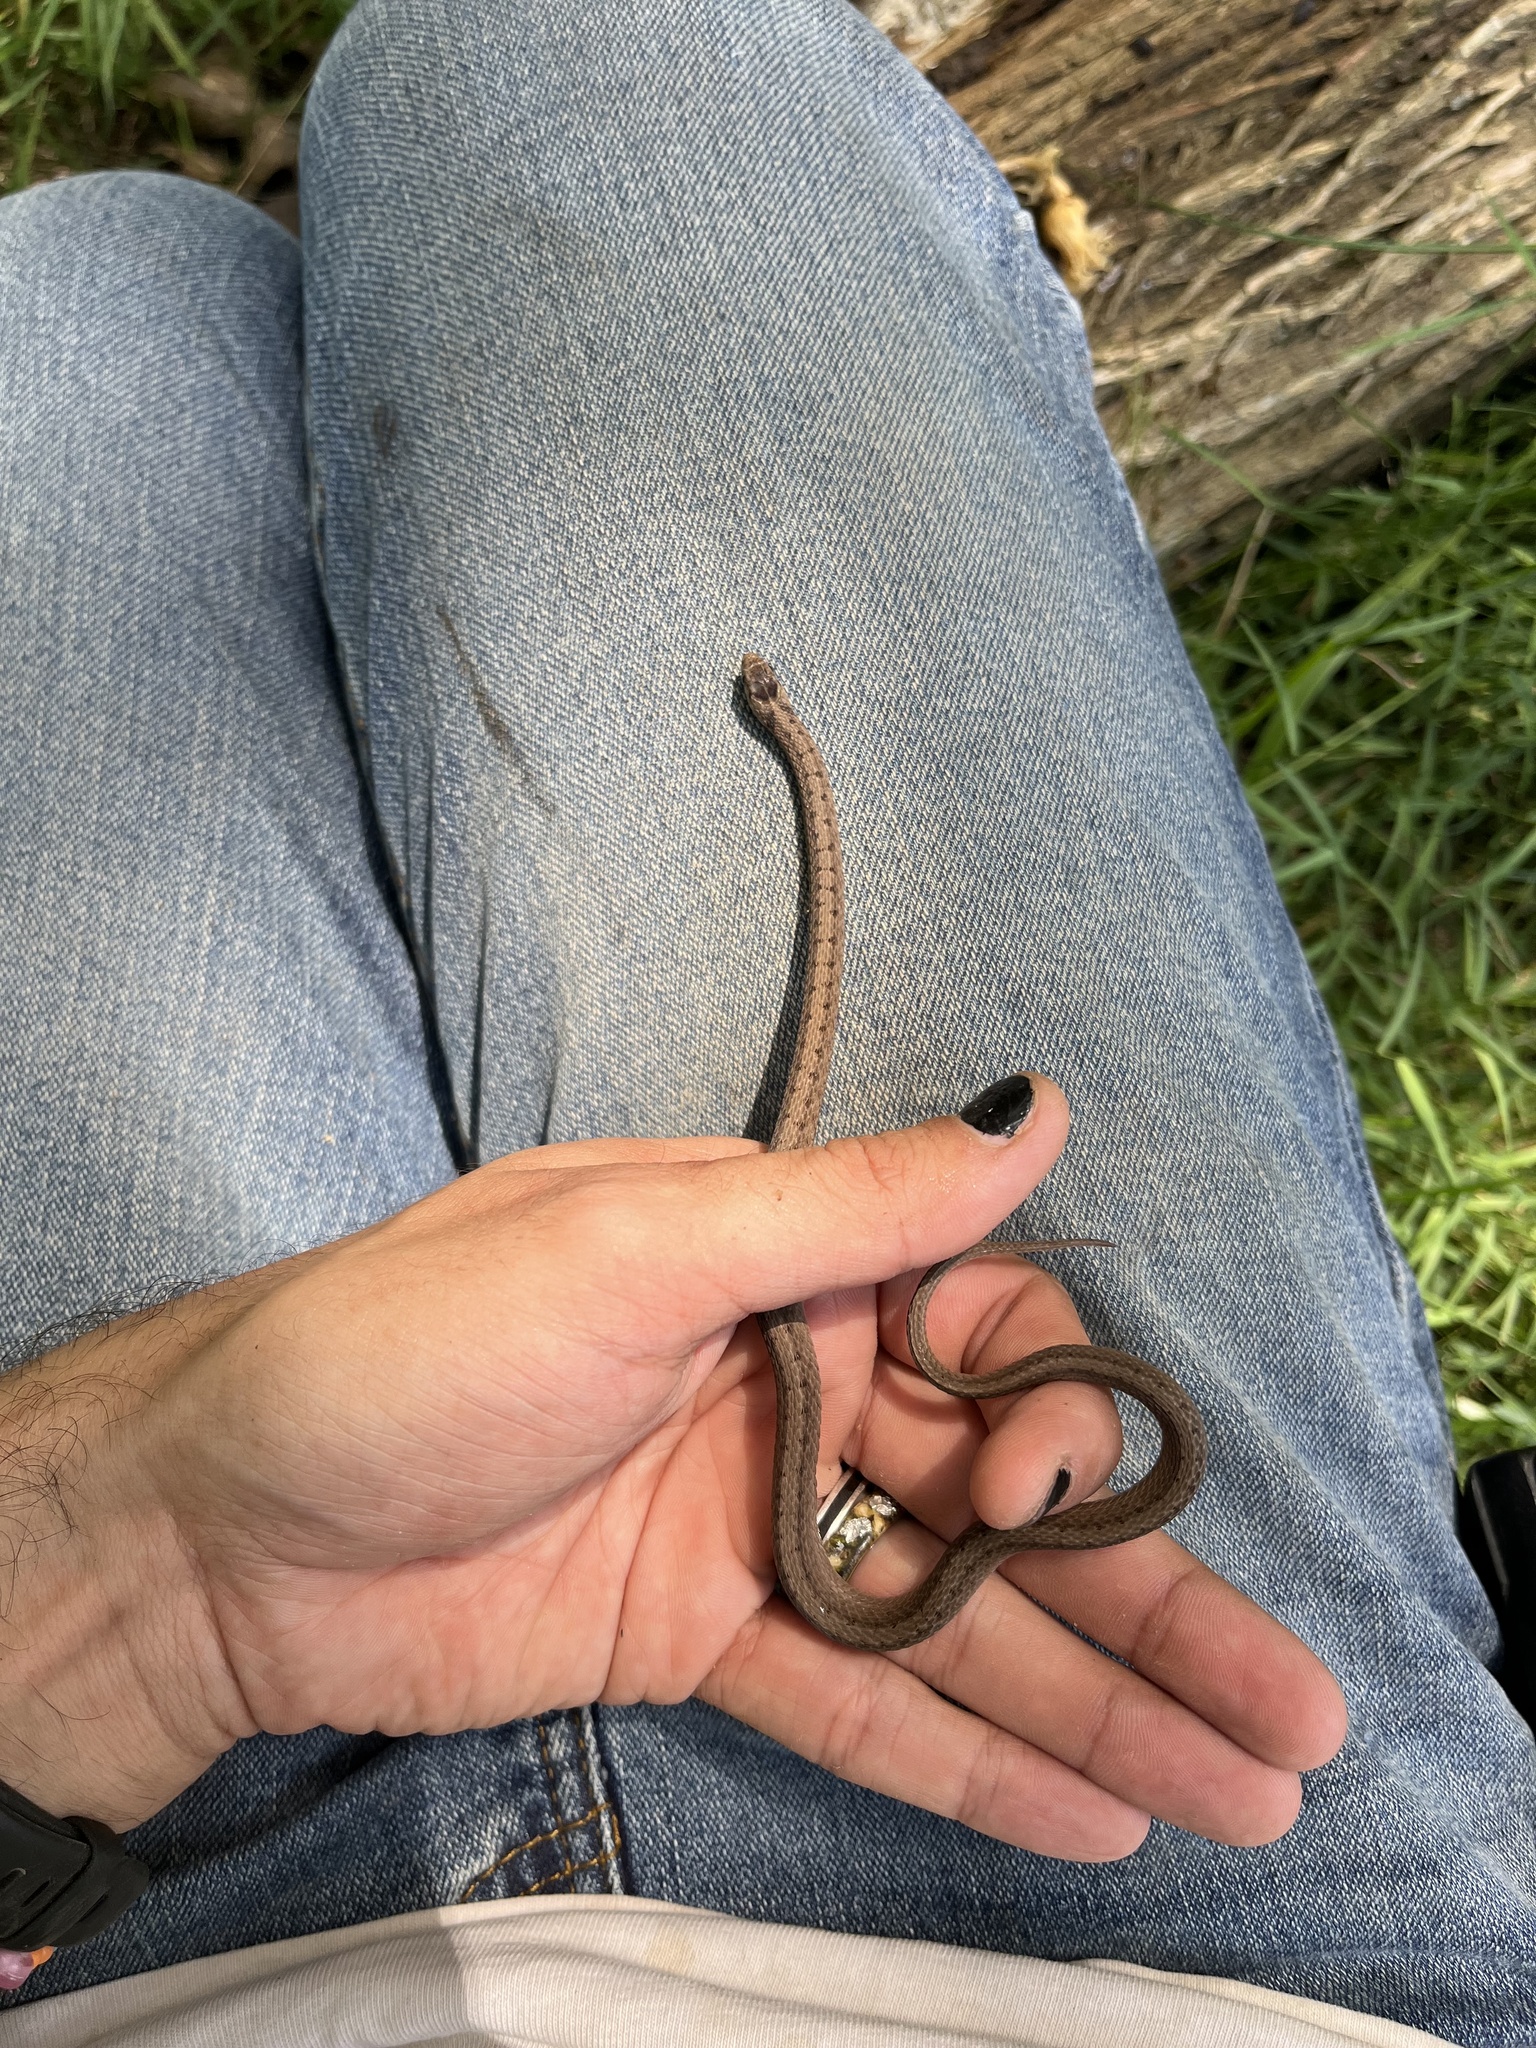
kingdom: Animalia
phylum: Chordata
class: Squamata
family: Colubridae
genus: Storeria
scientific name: Storeria dekayi
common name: (dekay’s) brown snake
